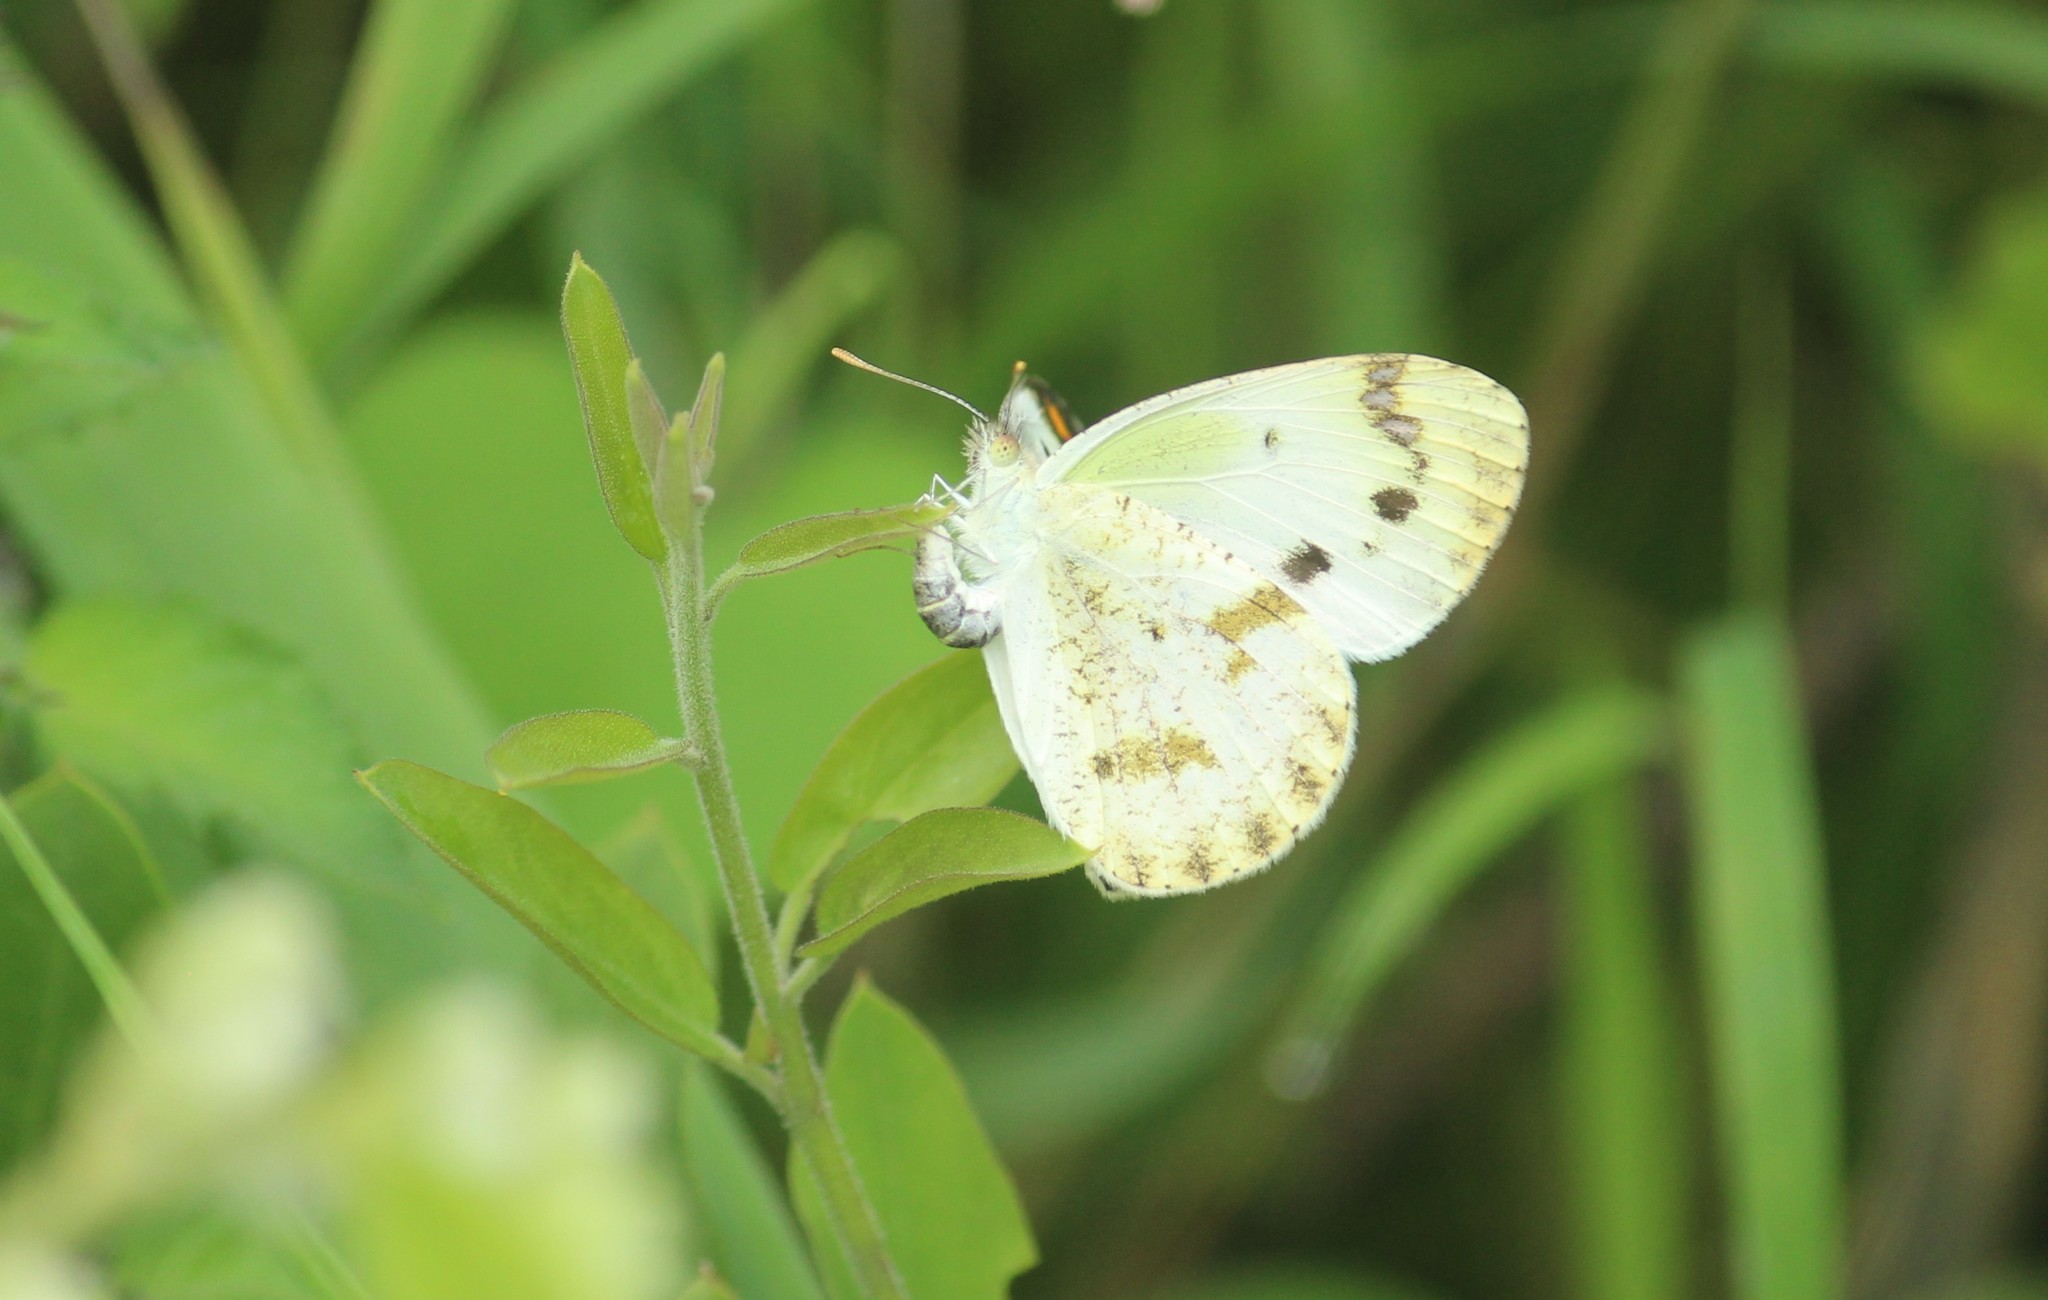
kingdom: Animalia
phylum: Arthropoda
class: Insecta
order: Lepidoptera
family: Pieridae
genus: Colotis
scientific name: Colotis aurora
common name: Plain orange-tip
